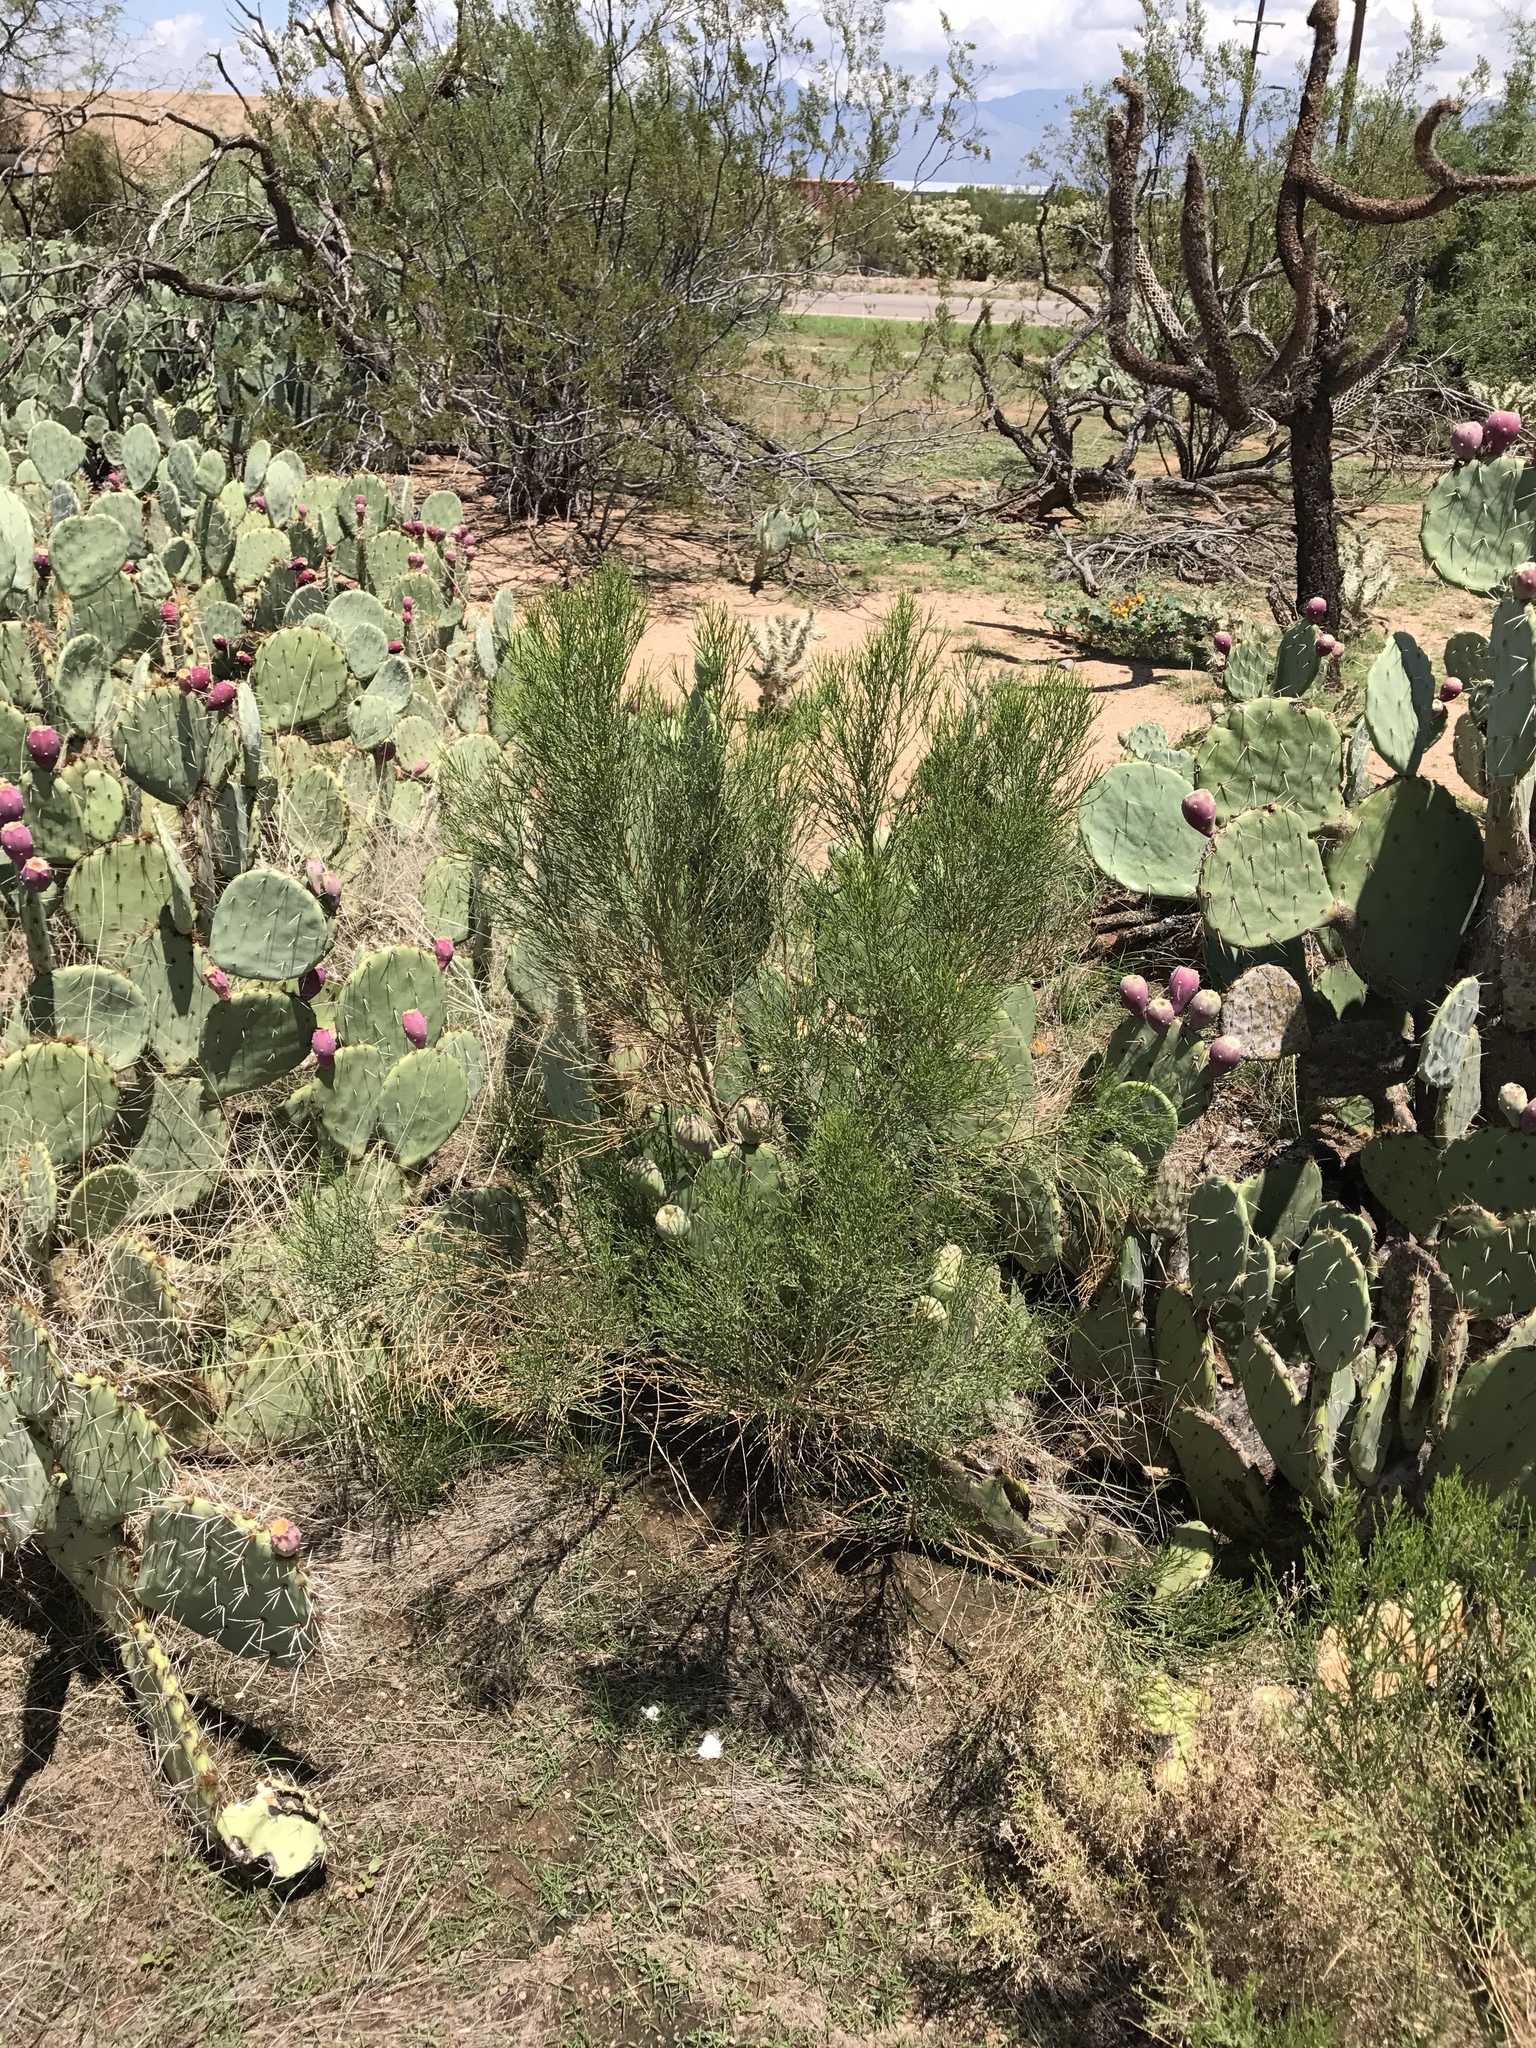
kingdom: Plantae
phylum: Tracheophyta
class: Magnoliopsida
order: Asterales
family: Asteraceae
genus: Baccharis
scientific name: Baccharis sarothroides
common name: Desert-broom
